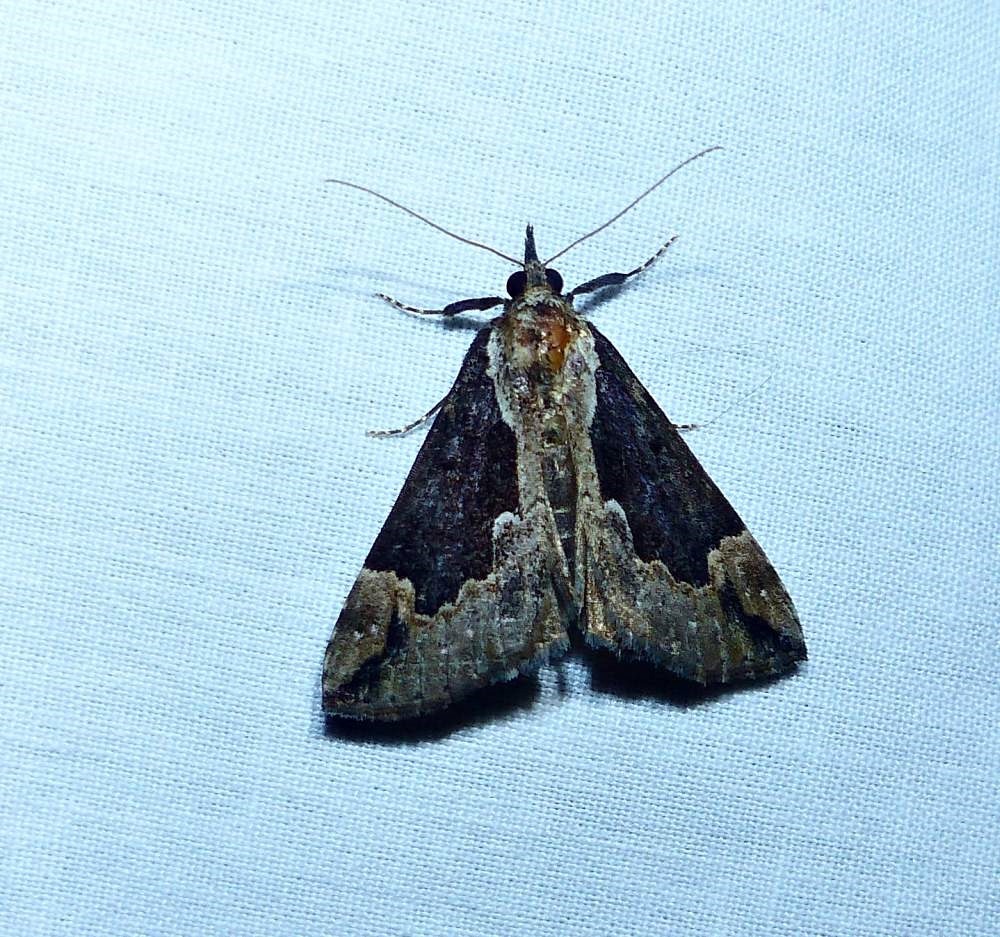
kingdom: Animalia
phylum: Arthropoda
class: Insecta
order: Lepidoptera
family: Erebidae
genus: Hypena
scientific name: Hypena baltimoralis
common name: Baltimore snout
